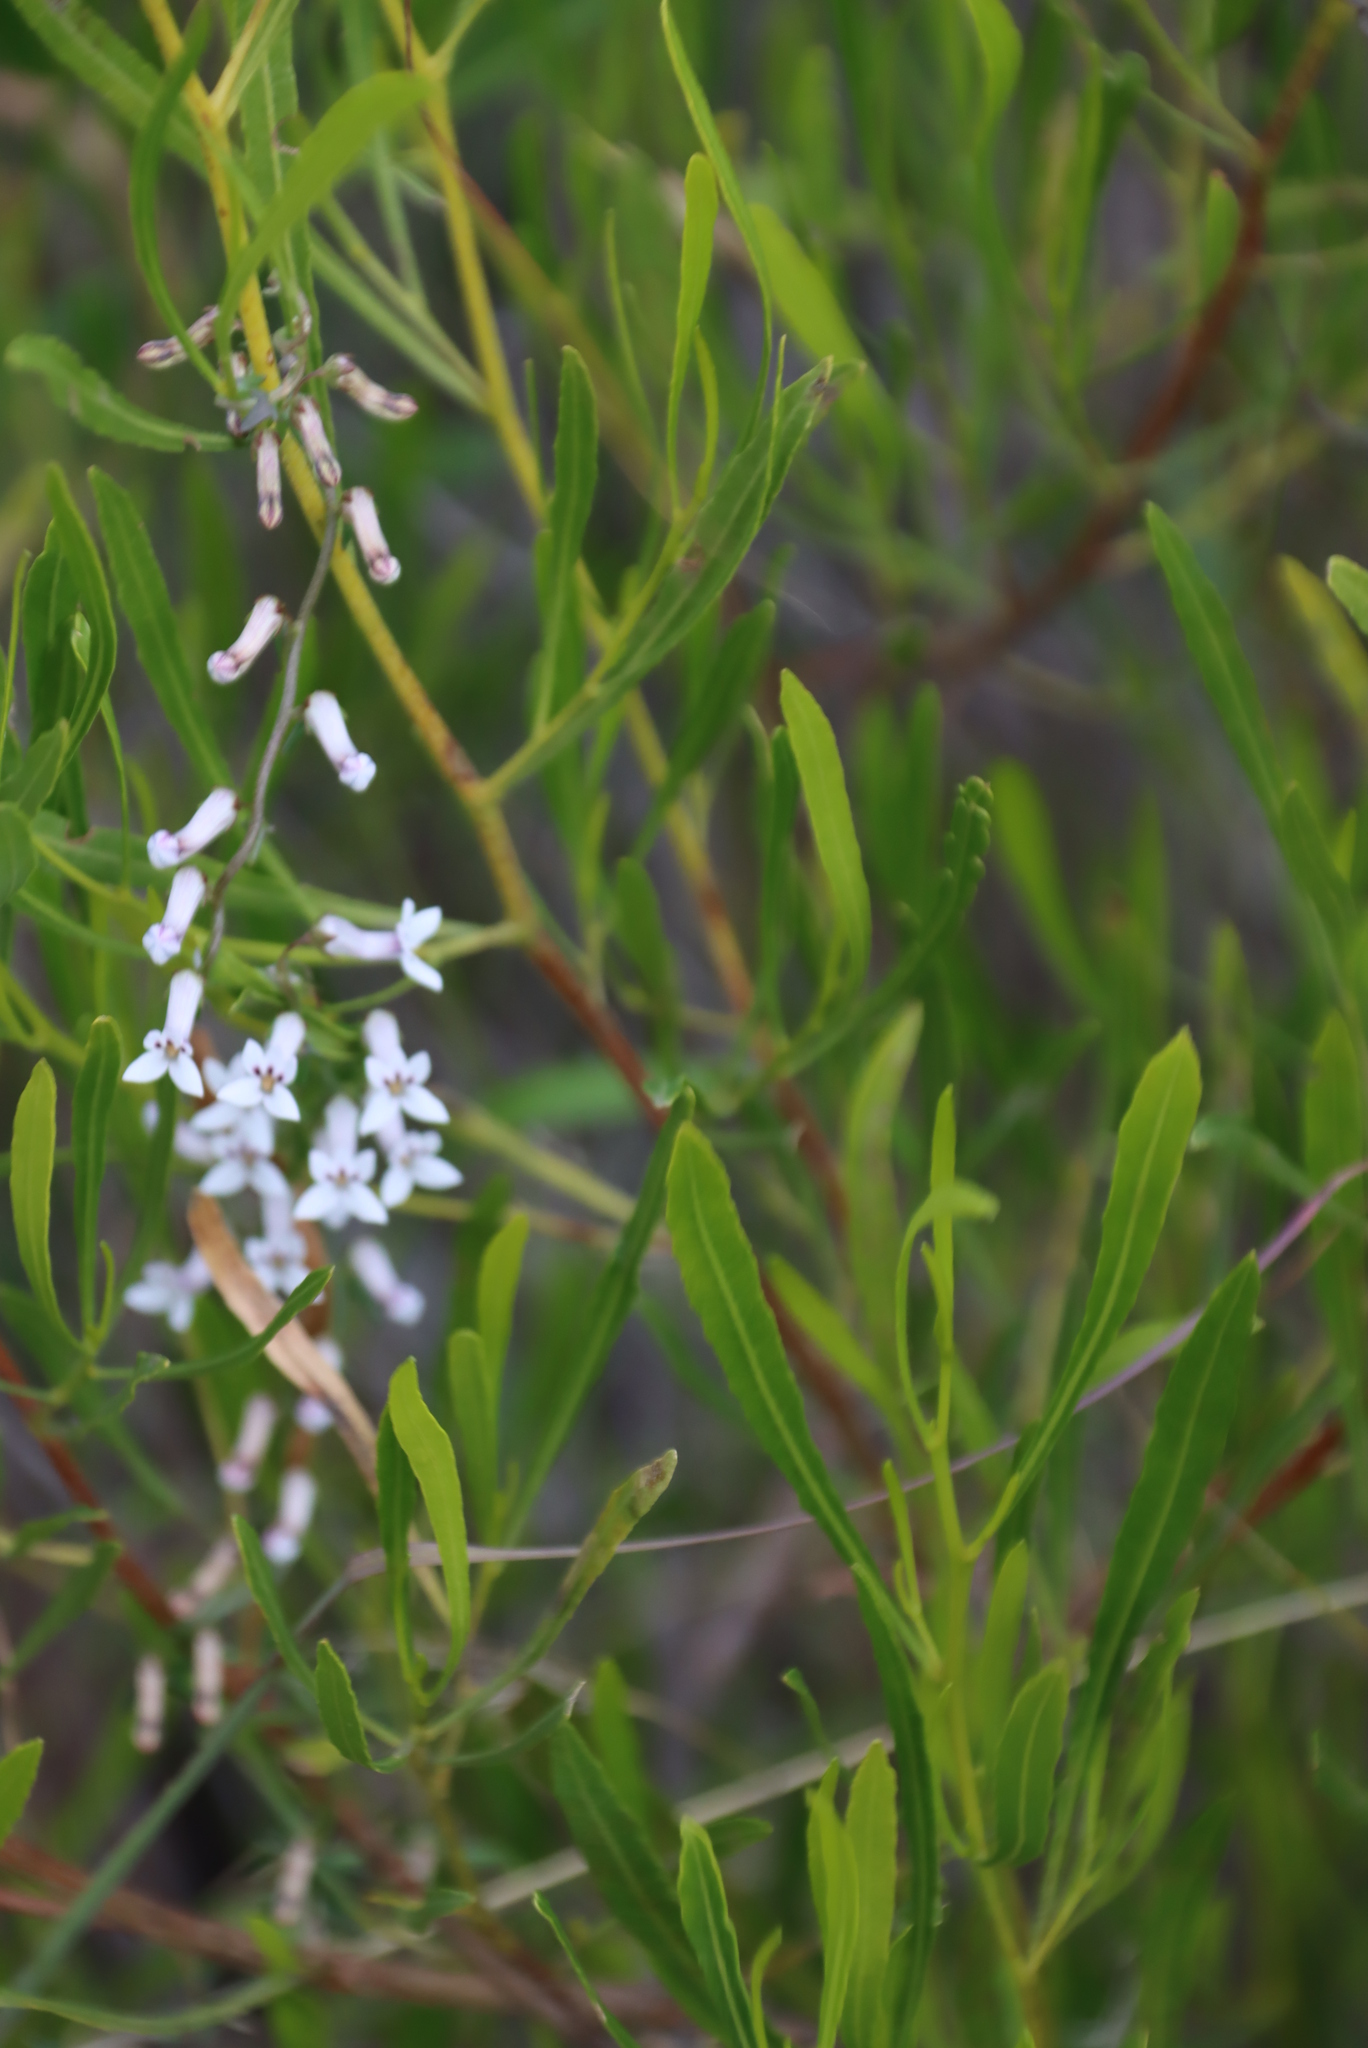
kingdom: Plantae
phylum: Tracheophyta
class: Magnoliopsida
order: Asterales
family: Campanulaceae
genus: Cyphia
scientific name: Cyphia digitata
